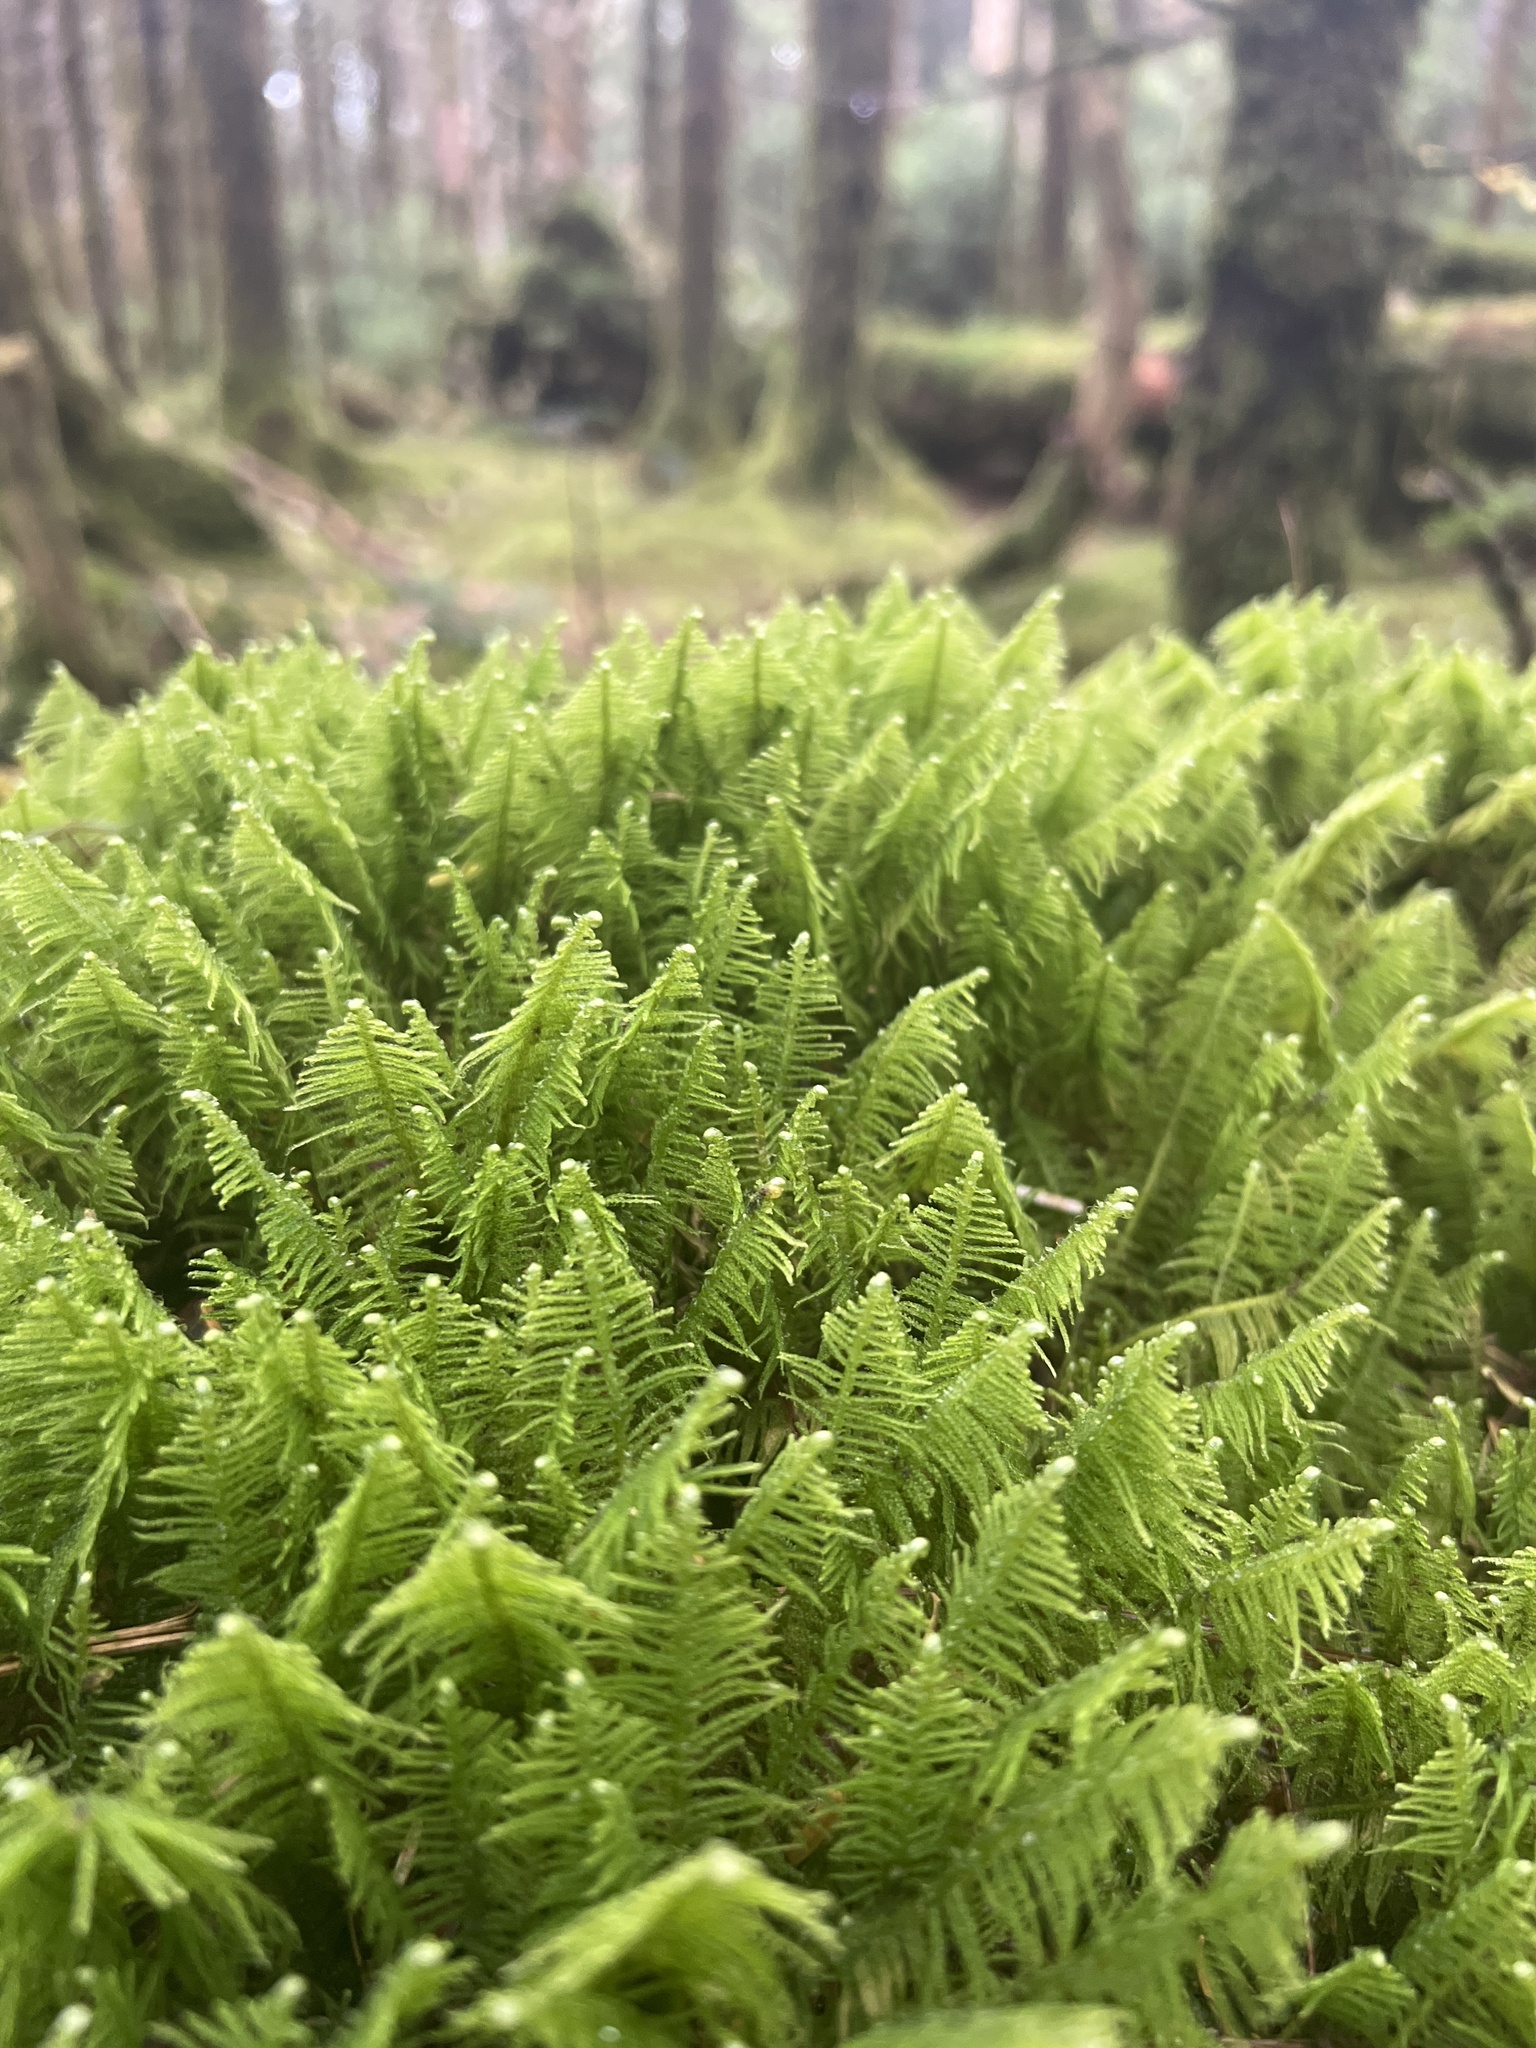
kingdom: Plantae
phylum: Bryophyta
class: Bryopsida
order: Hypnales
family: Pylaisiaceae
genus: Ptilium
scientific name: Ptilium crista-castrensis
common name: Knight's plume moss
